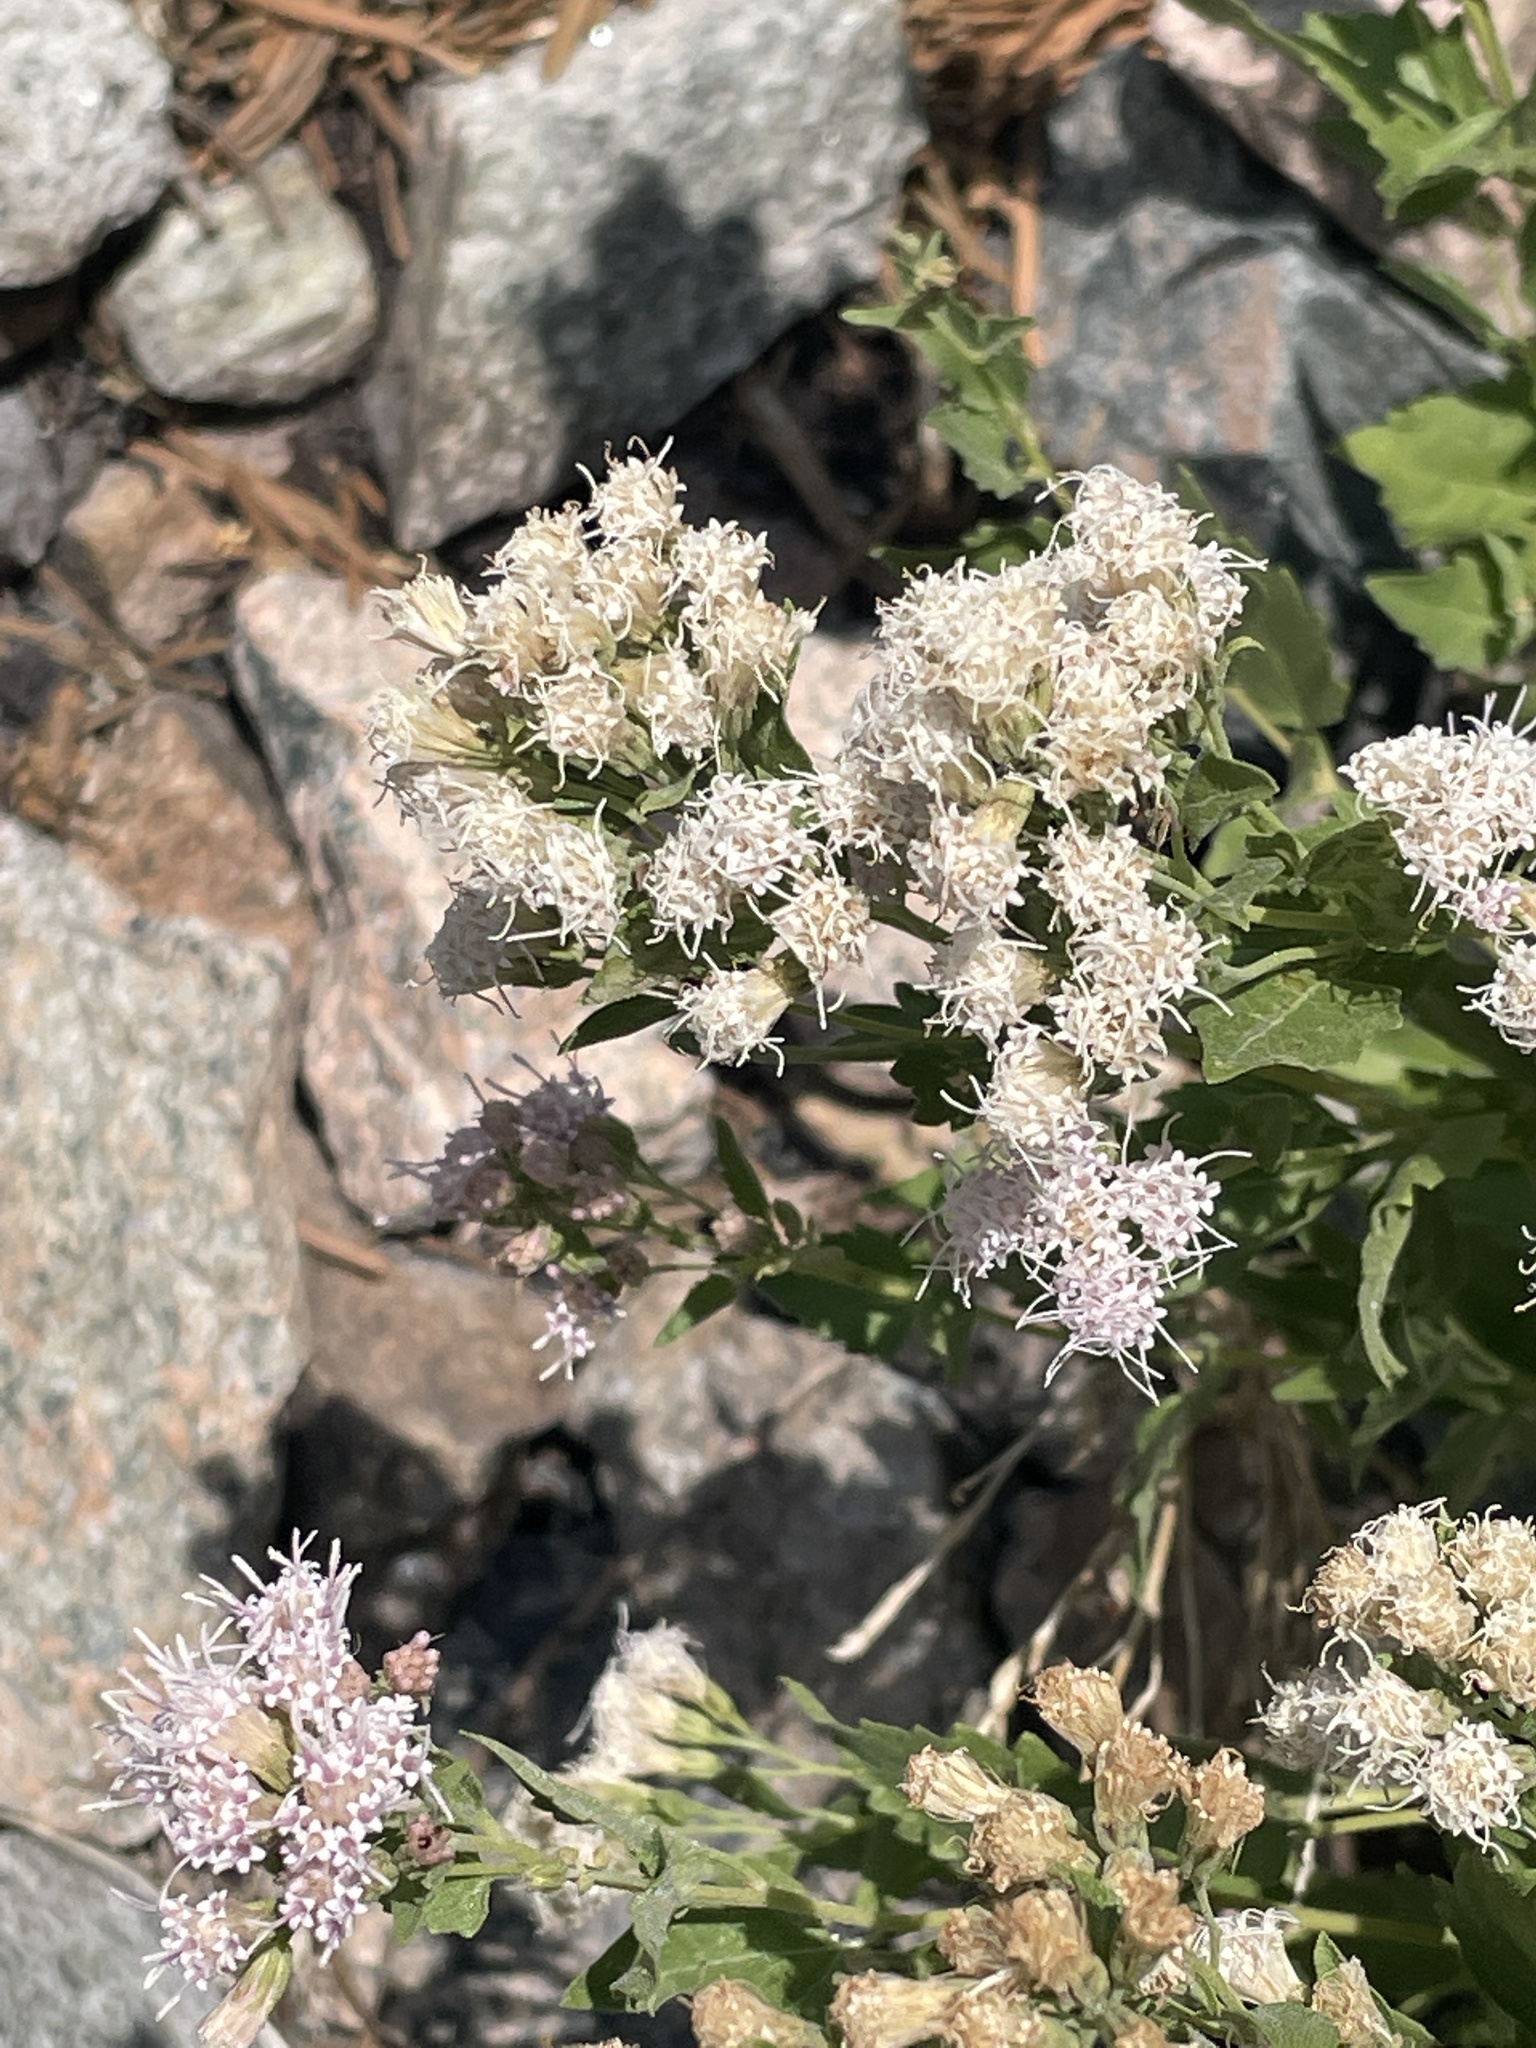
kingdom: Plantae
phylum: Tracheophyta
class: Magnoliopsida
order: Asterales
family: Asteraceae
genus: Ageratina
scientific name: Ageratina occidentalis
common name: Western snakeroot
